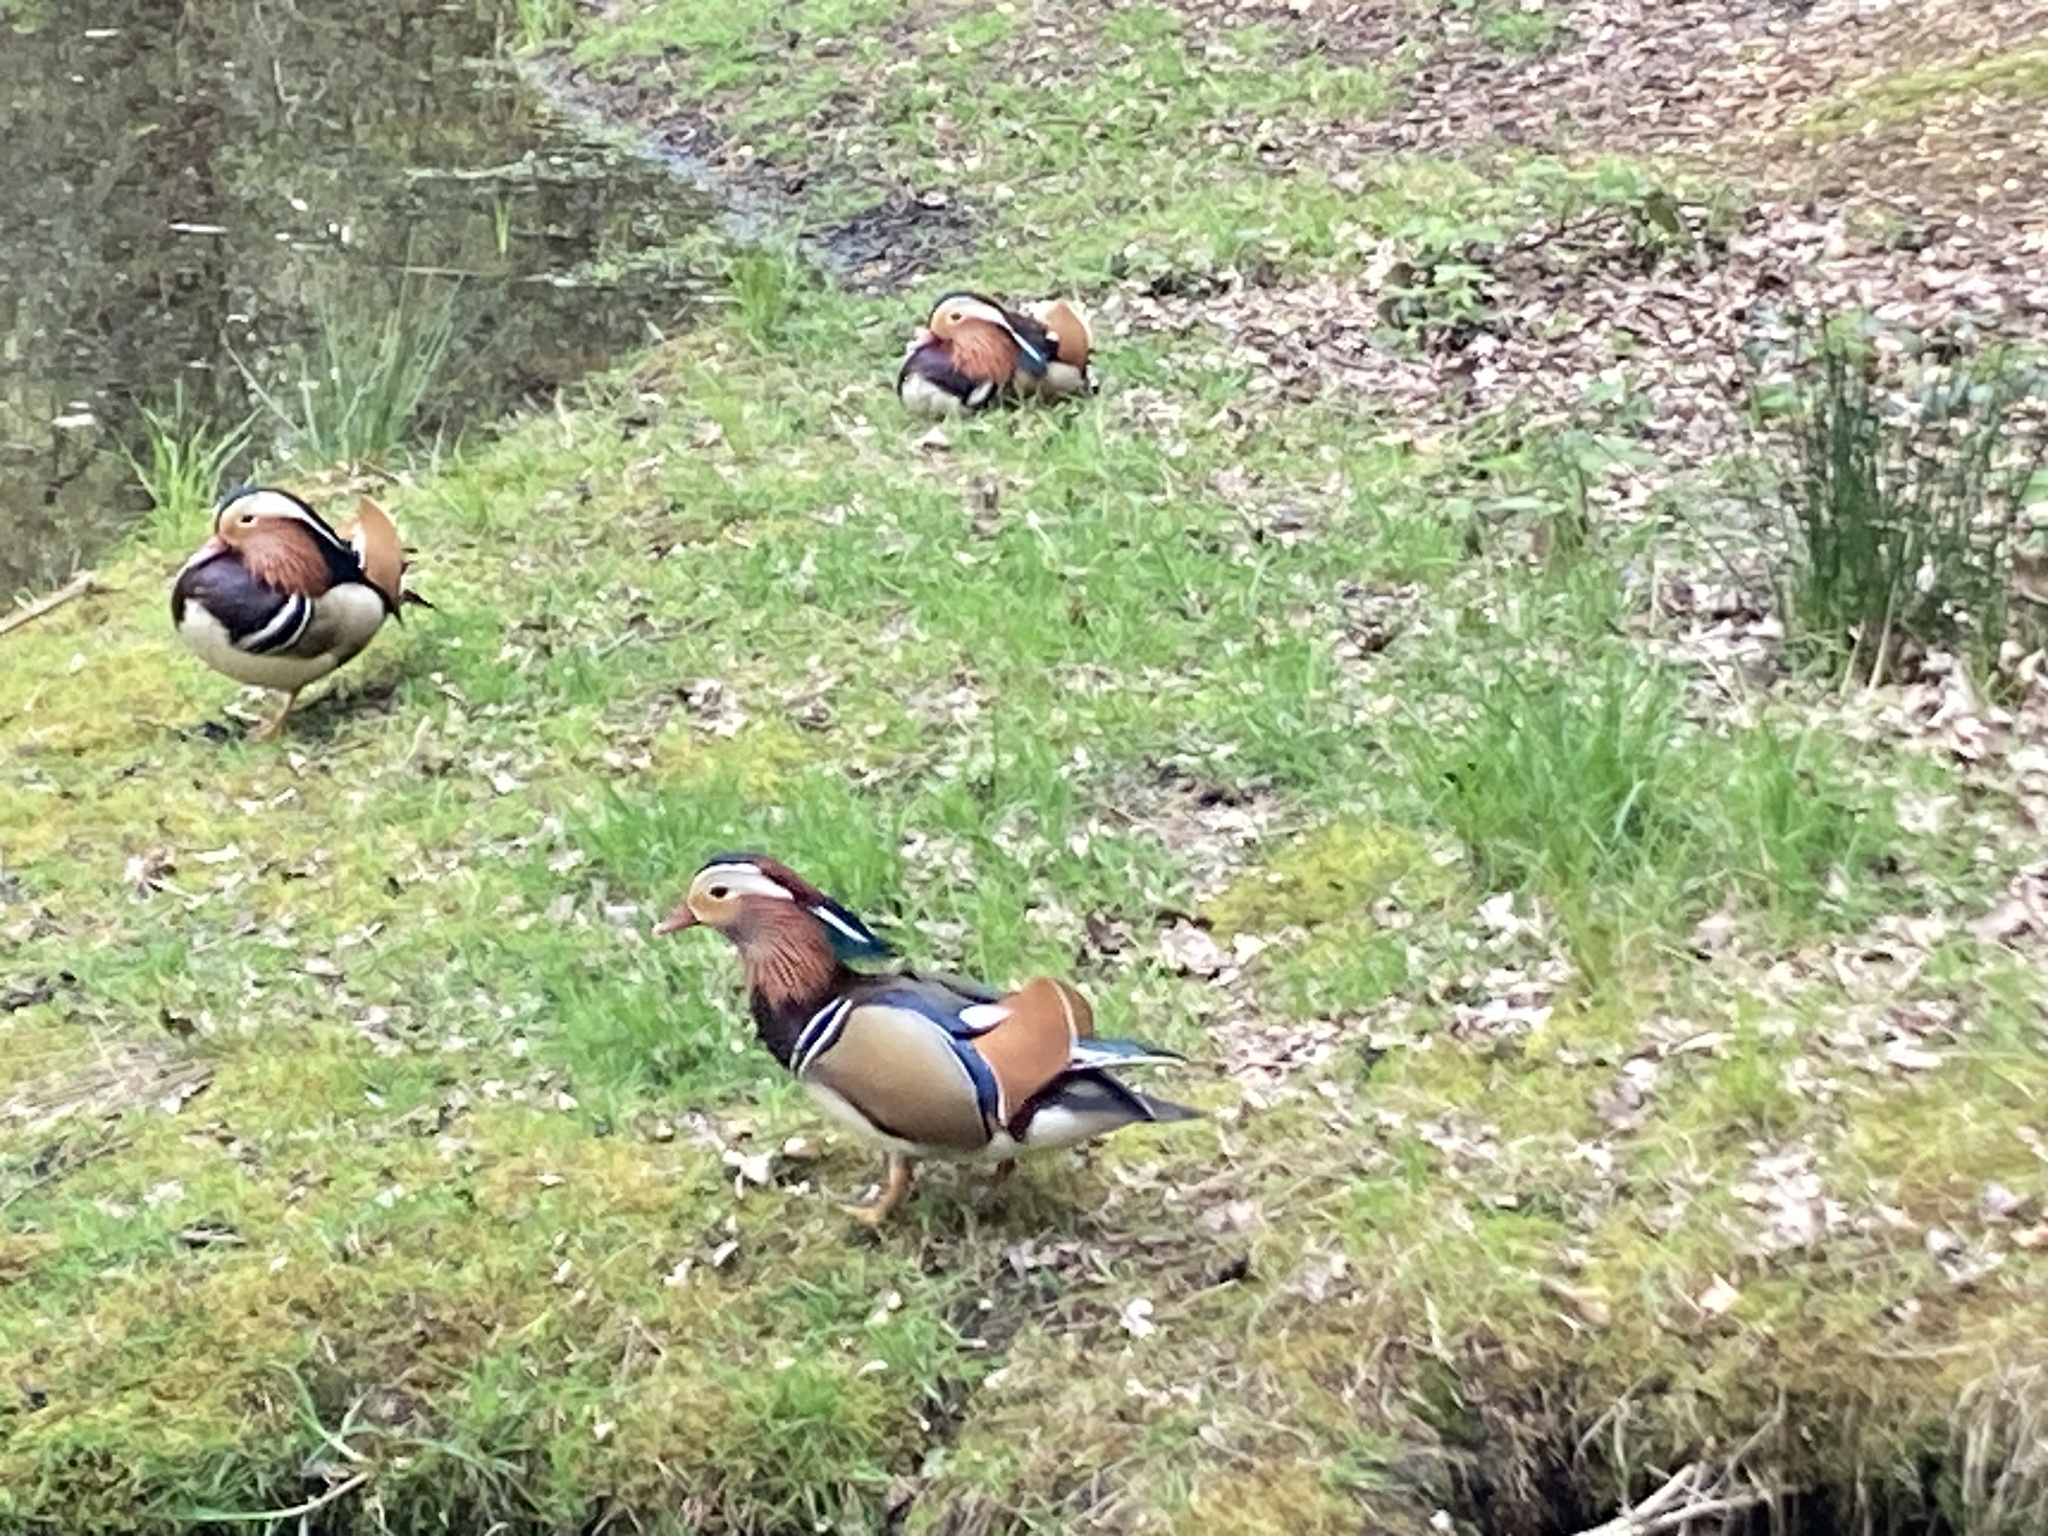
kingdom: Animalia
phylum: Chordata
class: Aves
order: Anseriformes
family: Anatidae
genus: Aix
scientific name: Aix galericulata
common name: Mandarin duck
